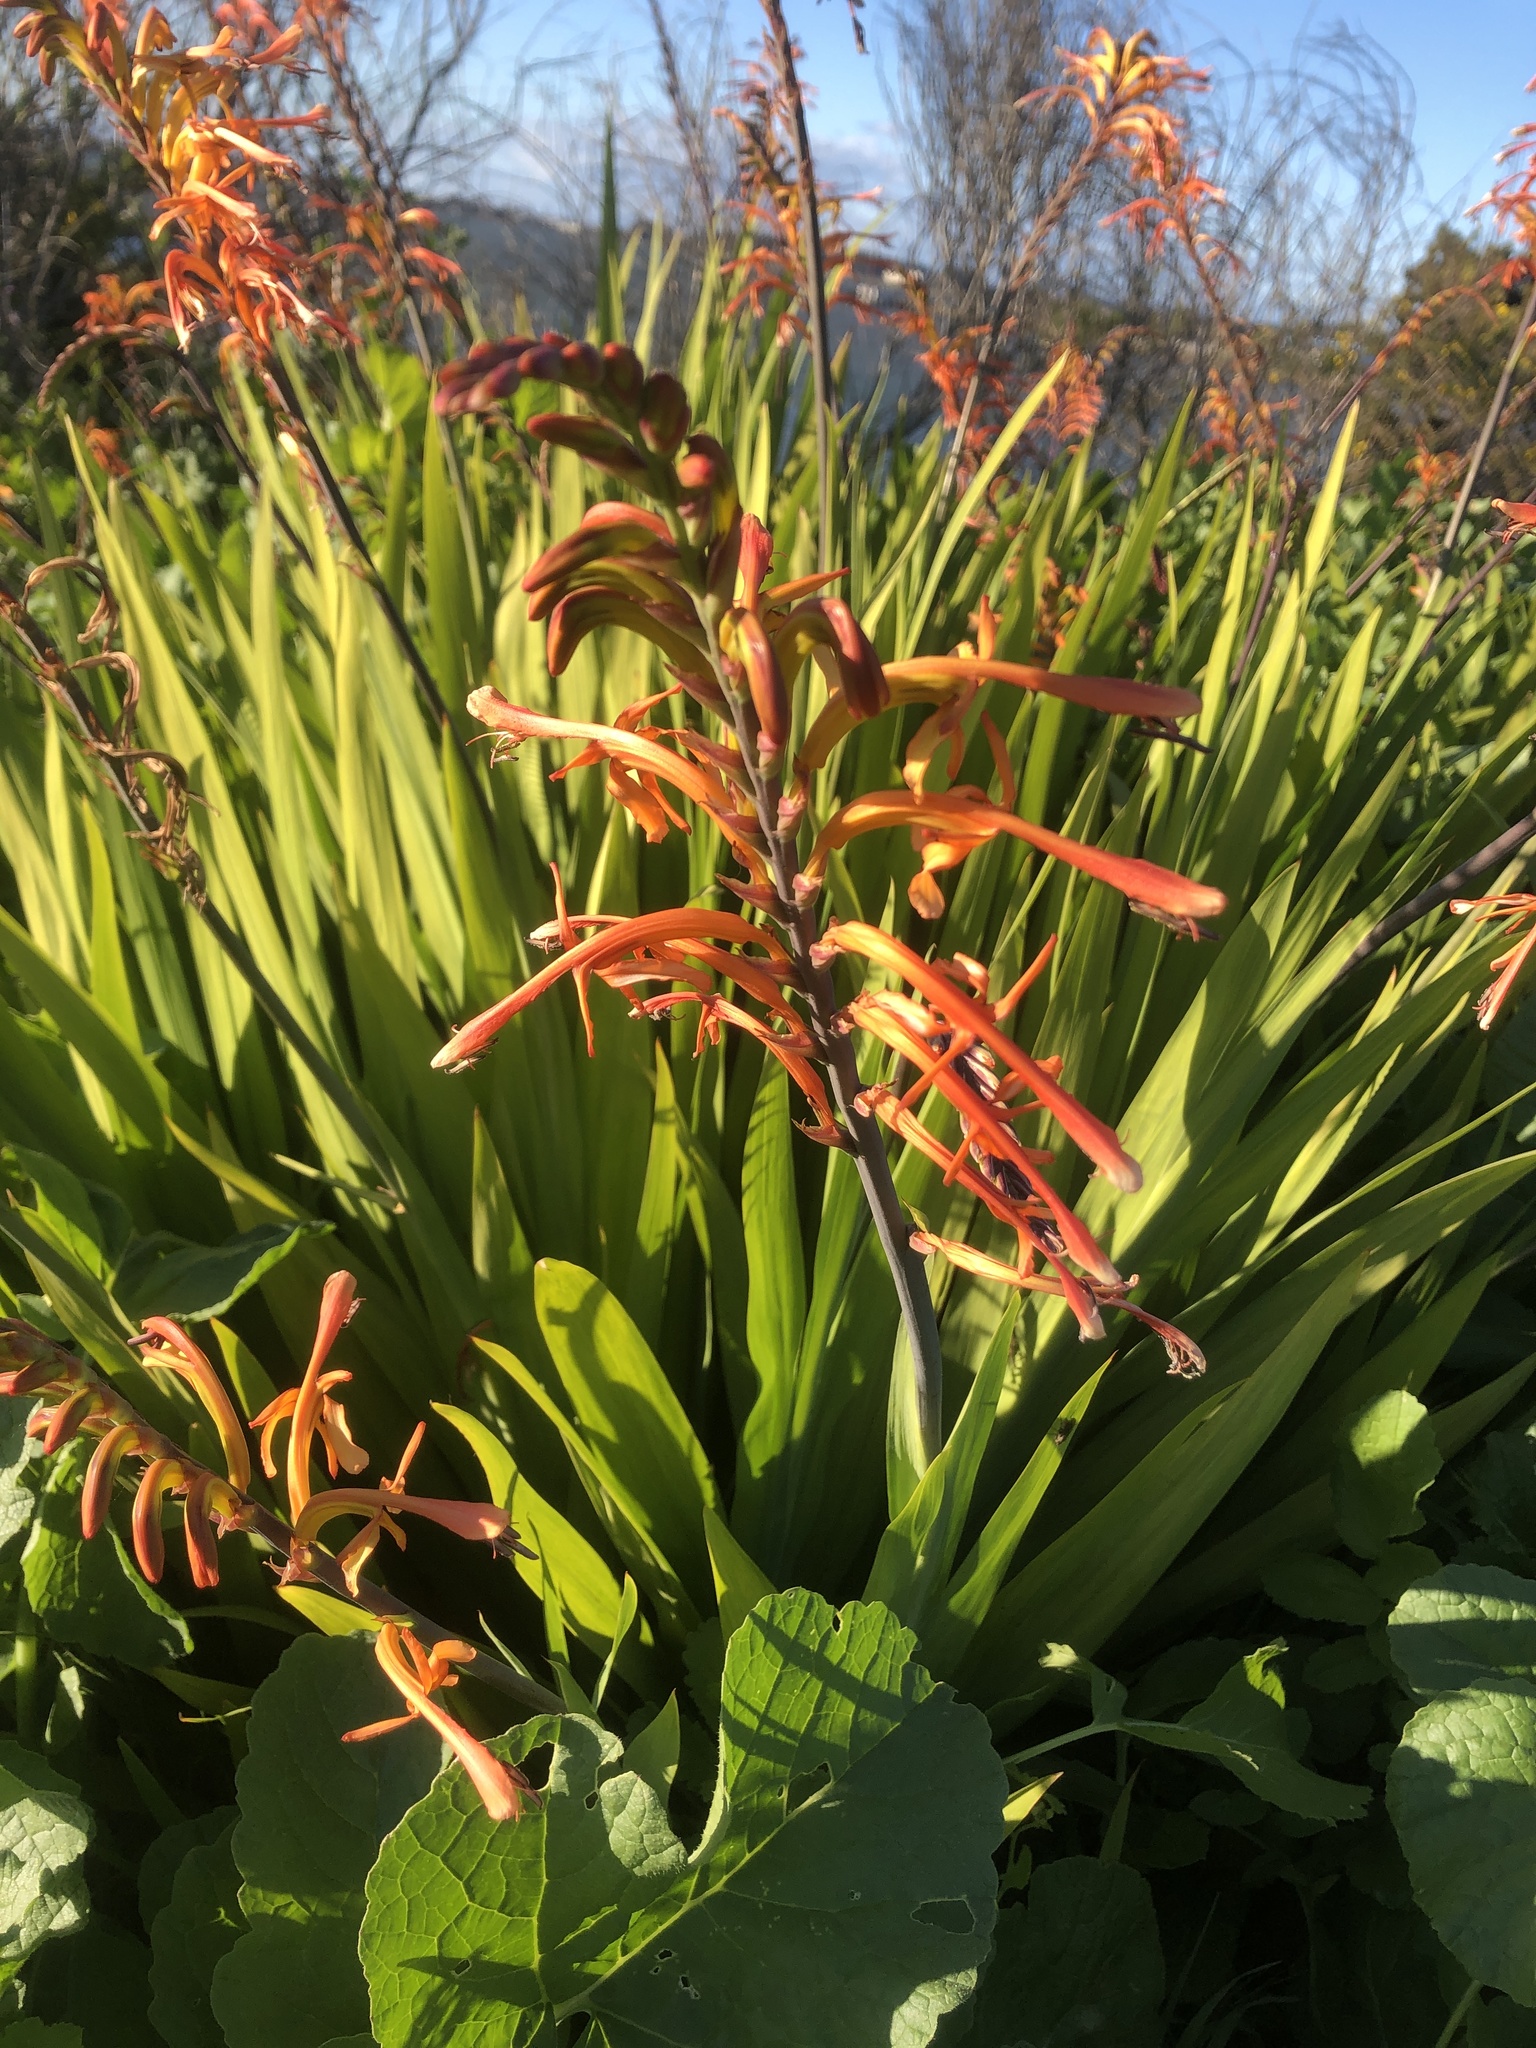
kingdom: Plantae
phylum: Tracheophyta
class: Liliopsida
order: Asparagales
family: Iridaceae
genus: Chasmanthe
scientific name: Chasmanthe floribunda
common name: African cornflag
